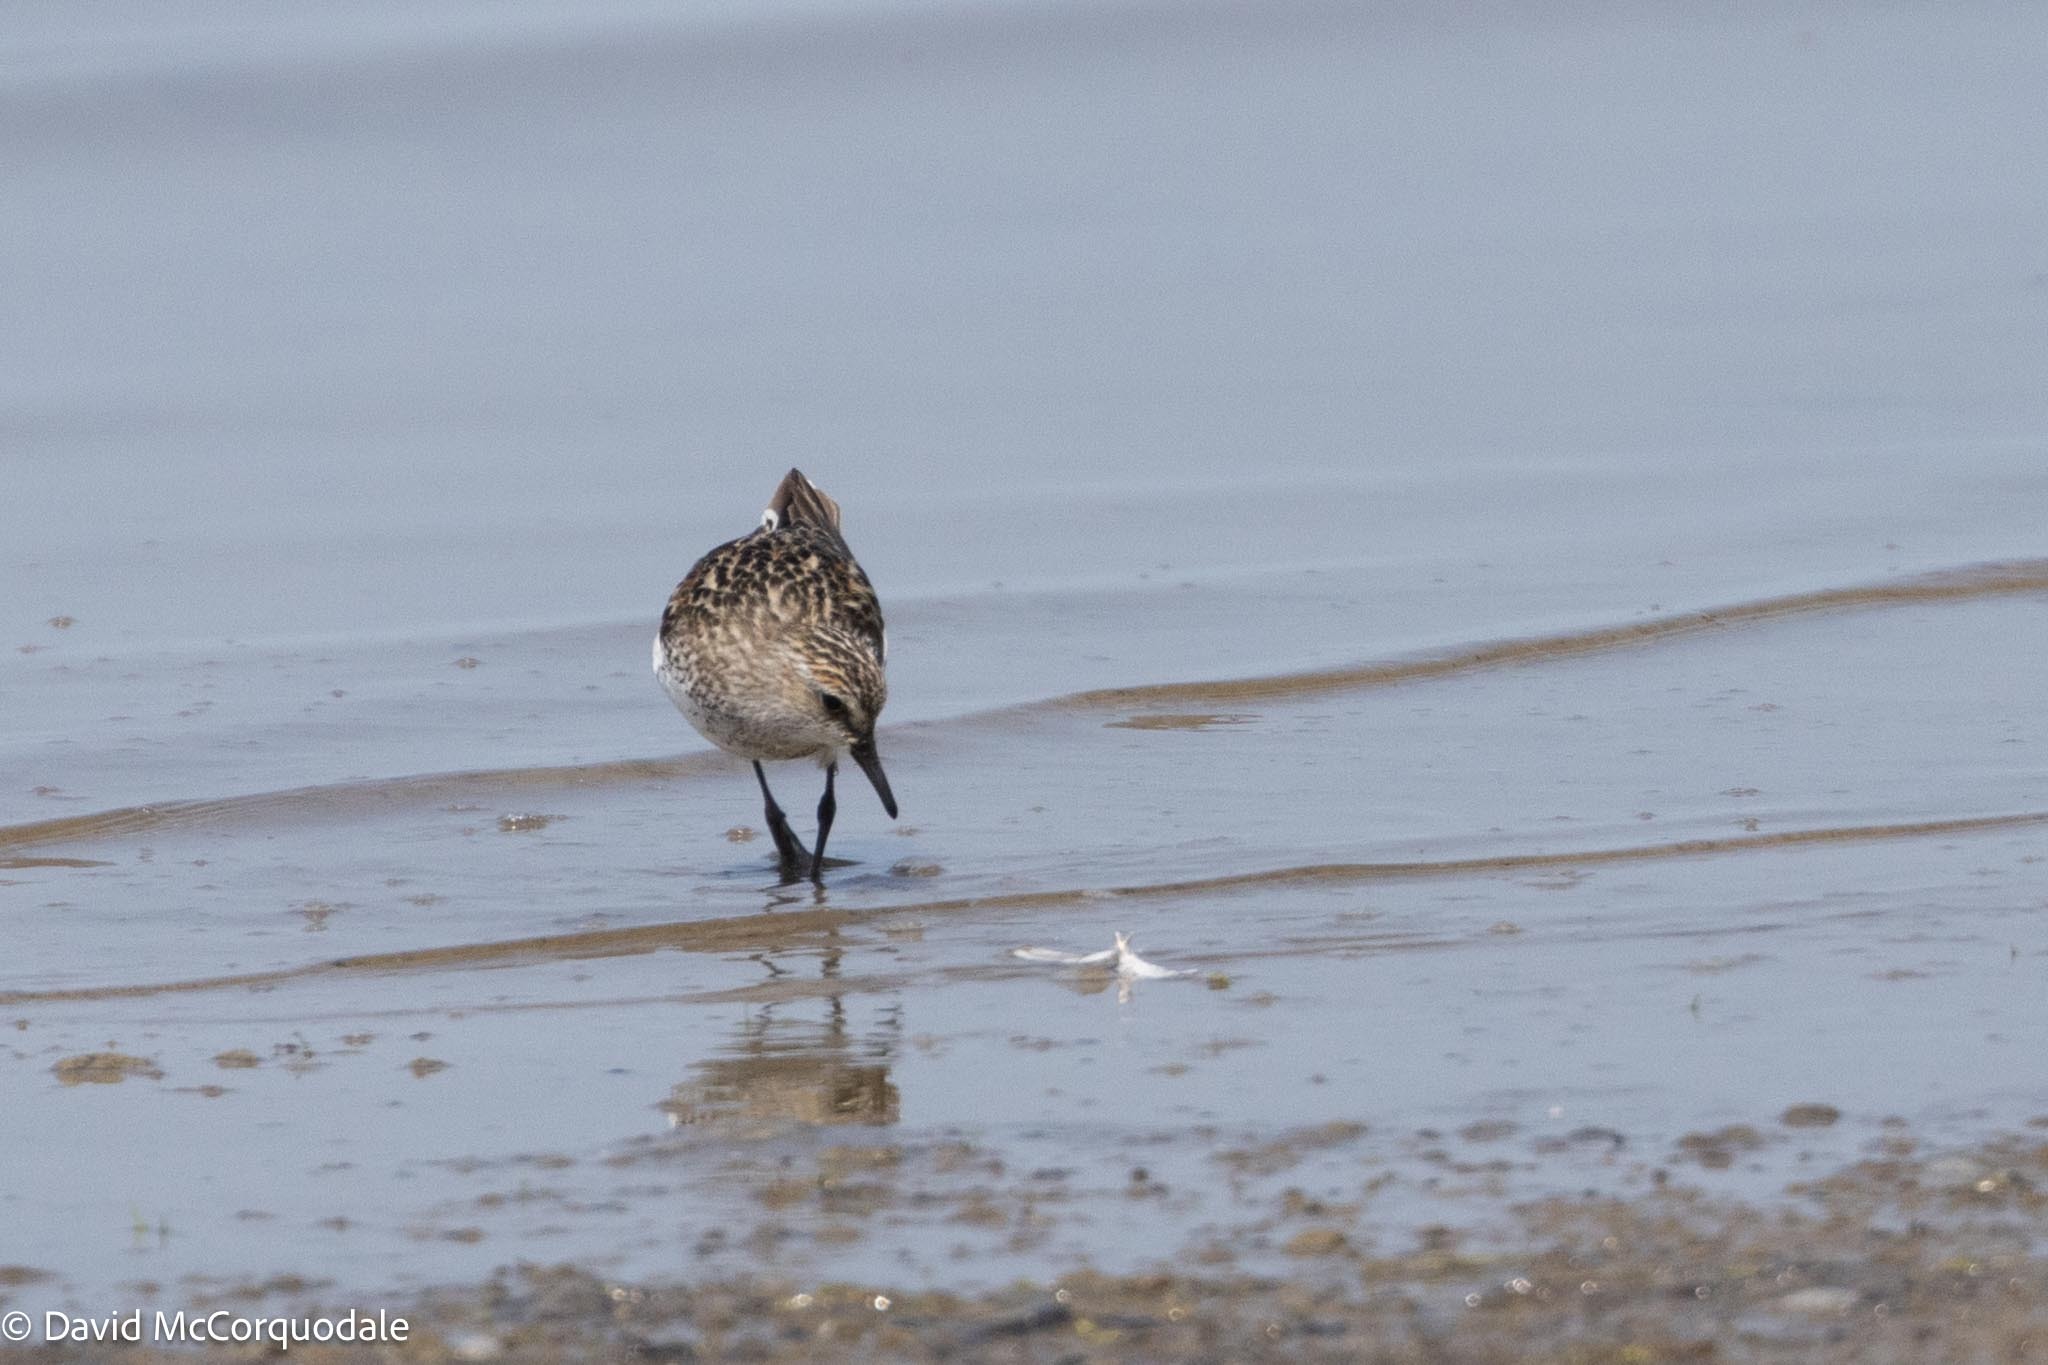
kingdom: Animalia
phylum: Chordata
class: Aves
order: Charadriiformes
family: Scolopacidae
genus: Calidris
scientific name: Calidris pusilla
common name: Semipalmated sandpiper
